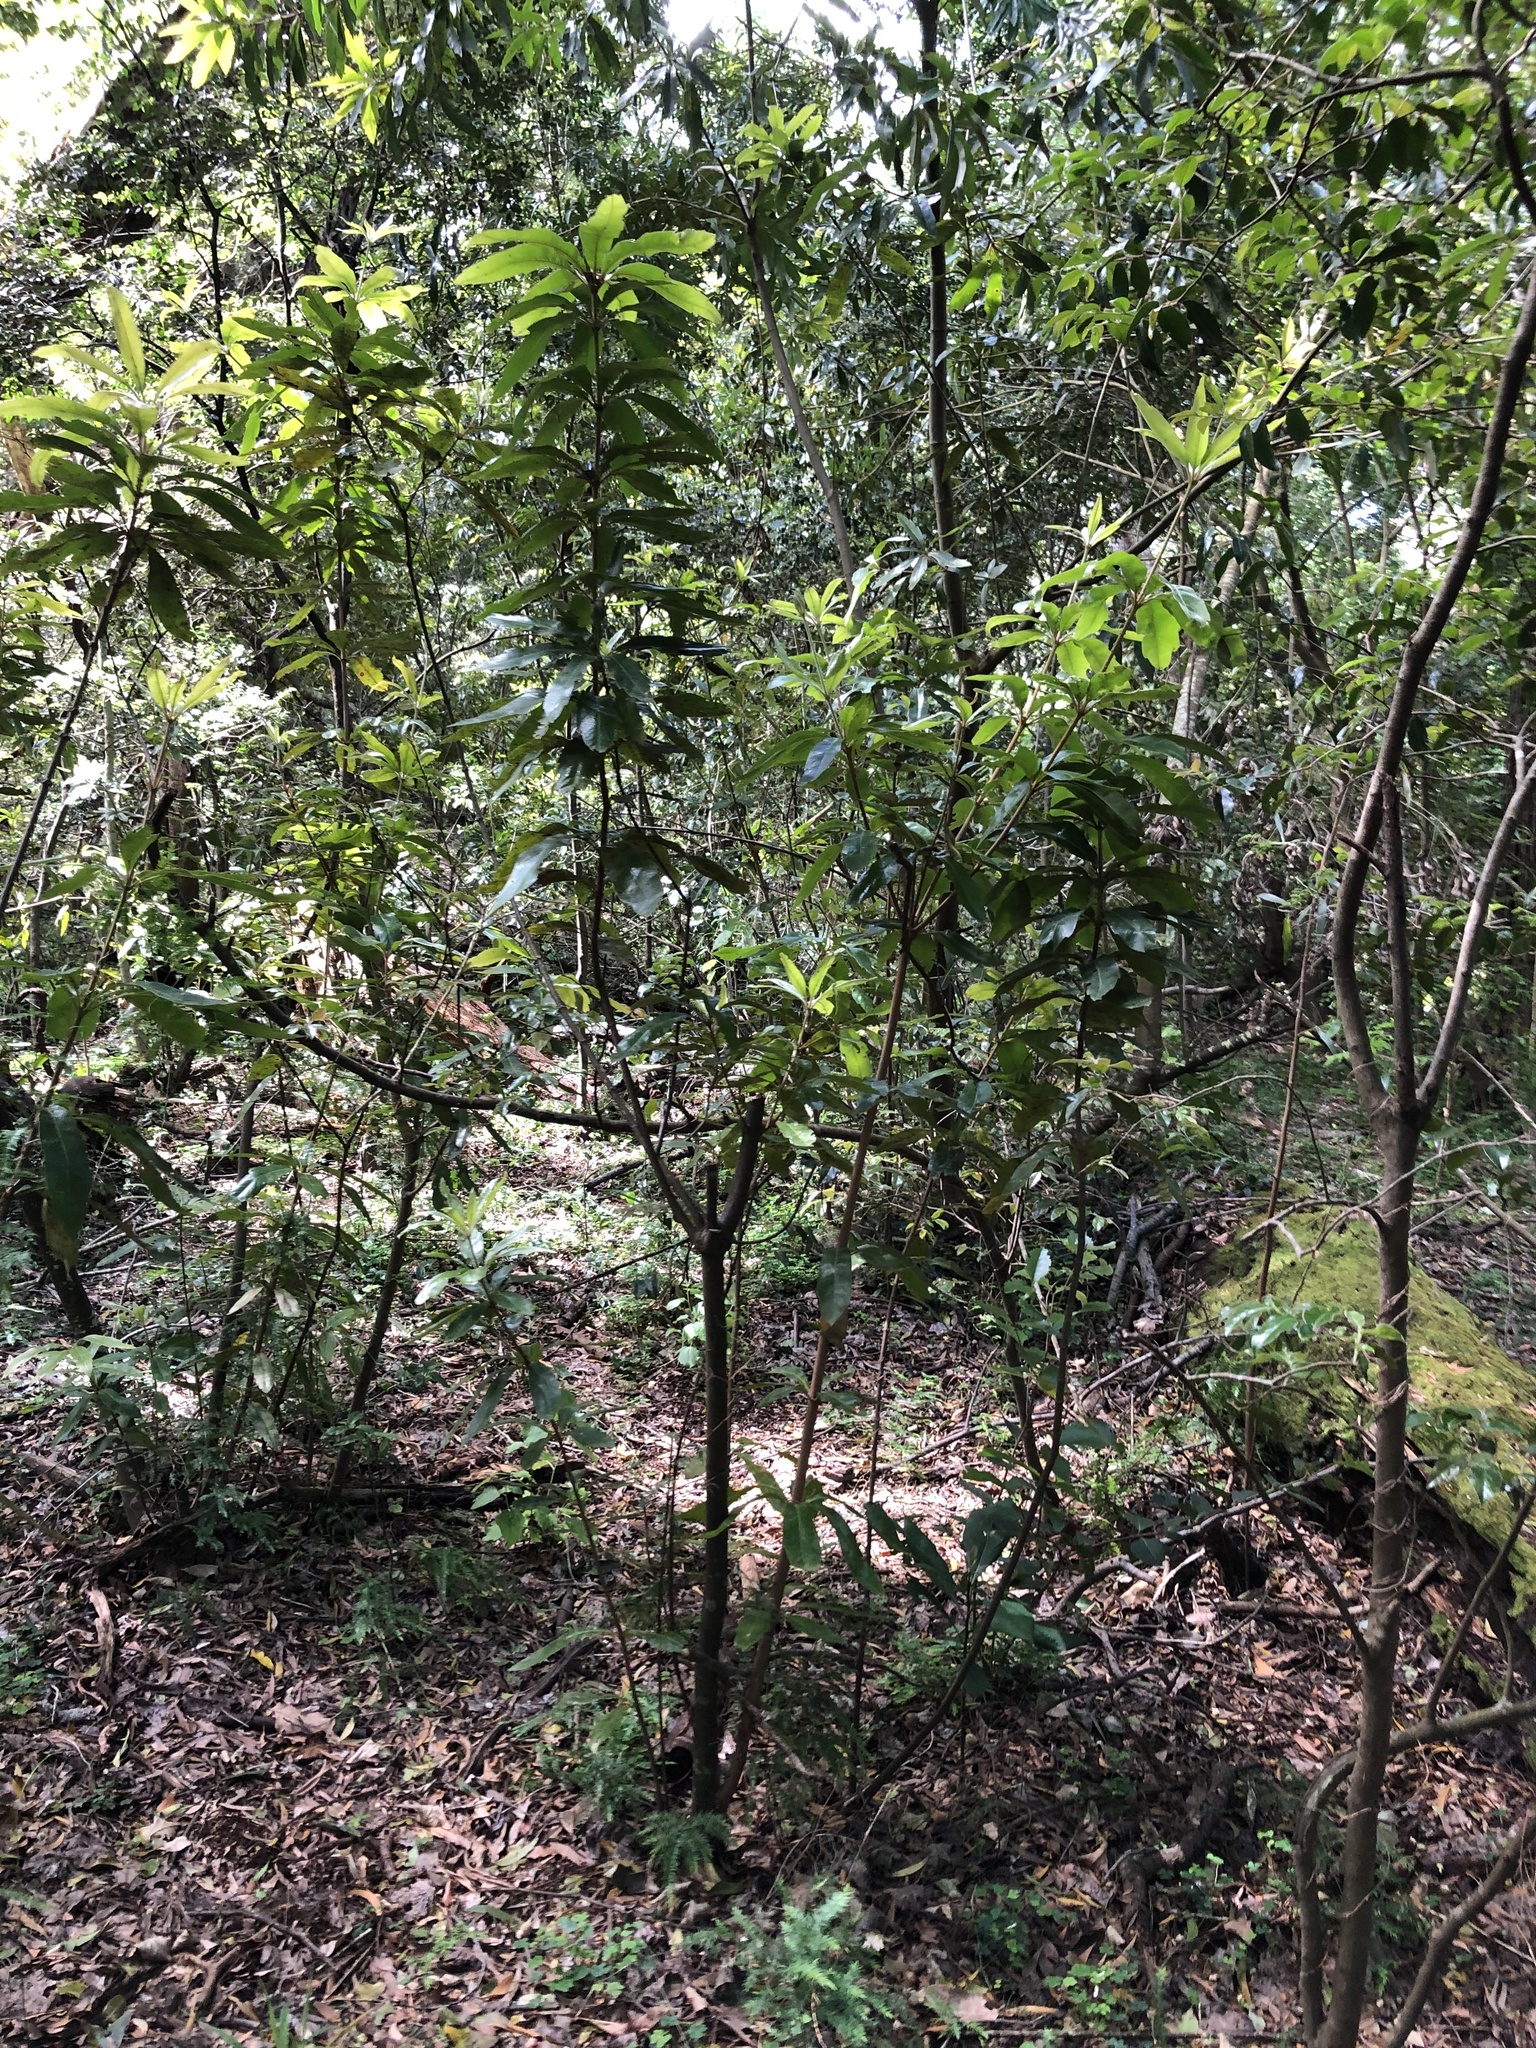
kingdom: Plantae
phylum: Tracheophyta
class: Magnoliopsida
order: Proteales
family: Proteaceae
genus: Brabejum
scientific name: Brabejum stellatifolium
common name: Wild almond
